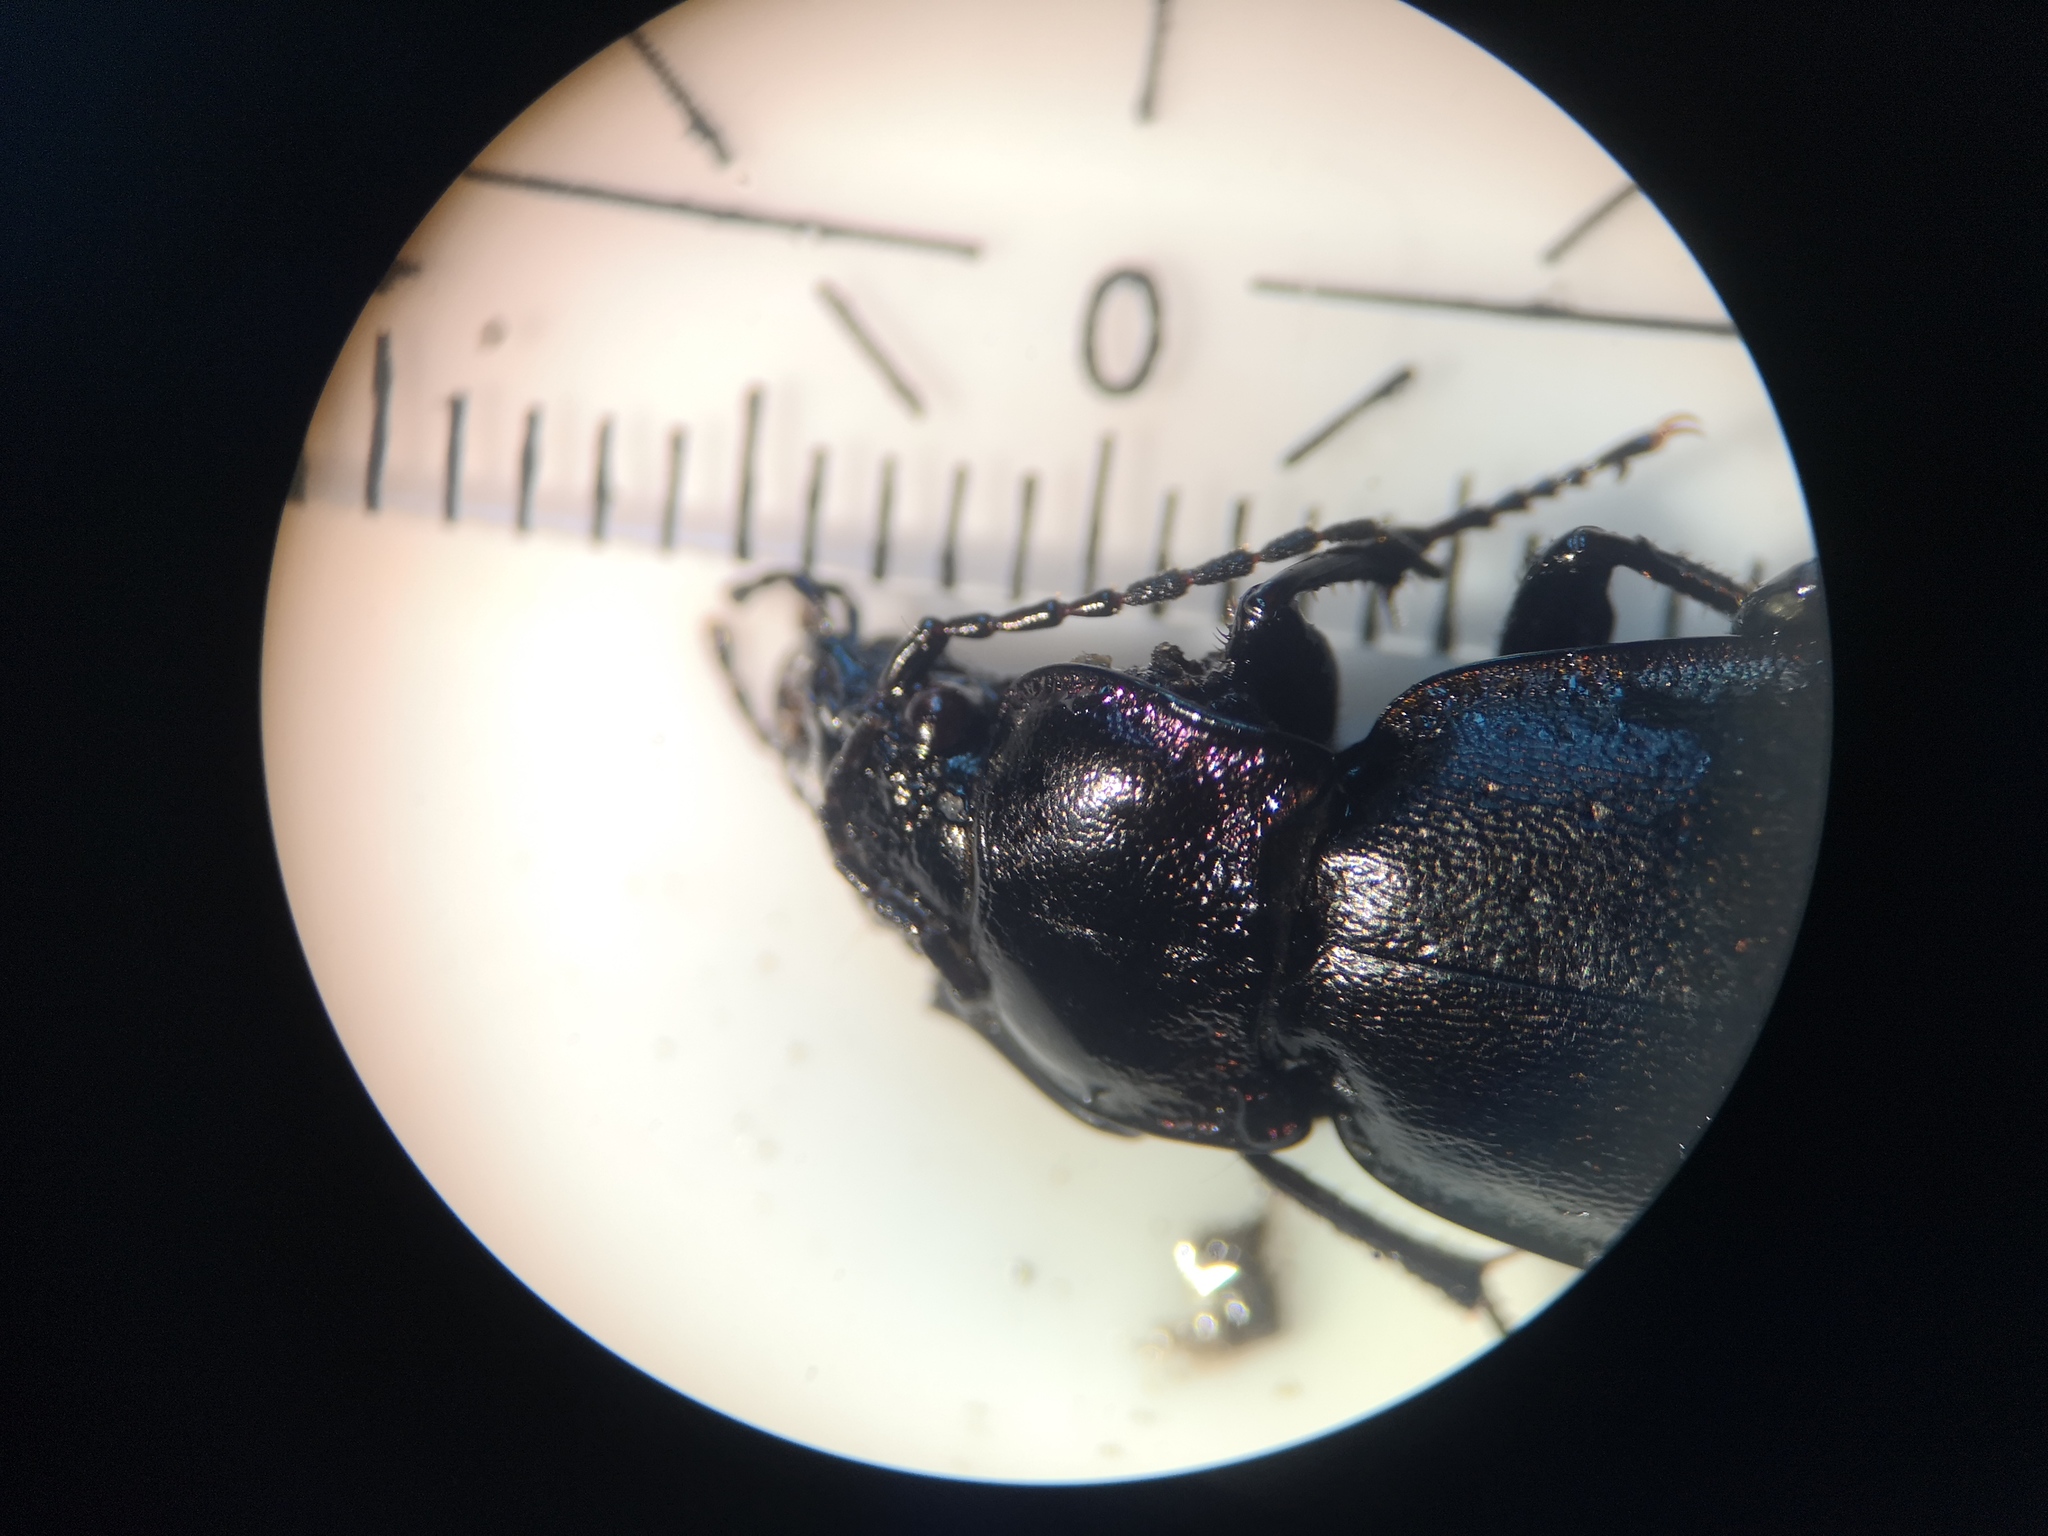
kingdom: Animalia
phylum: Arthropoda
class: Insecta
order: Coleoptera
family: Carabidae
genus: Carabus
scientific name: Carabus nemoralis
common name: European ground beetle
